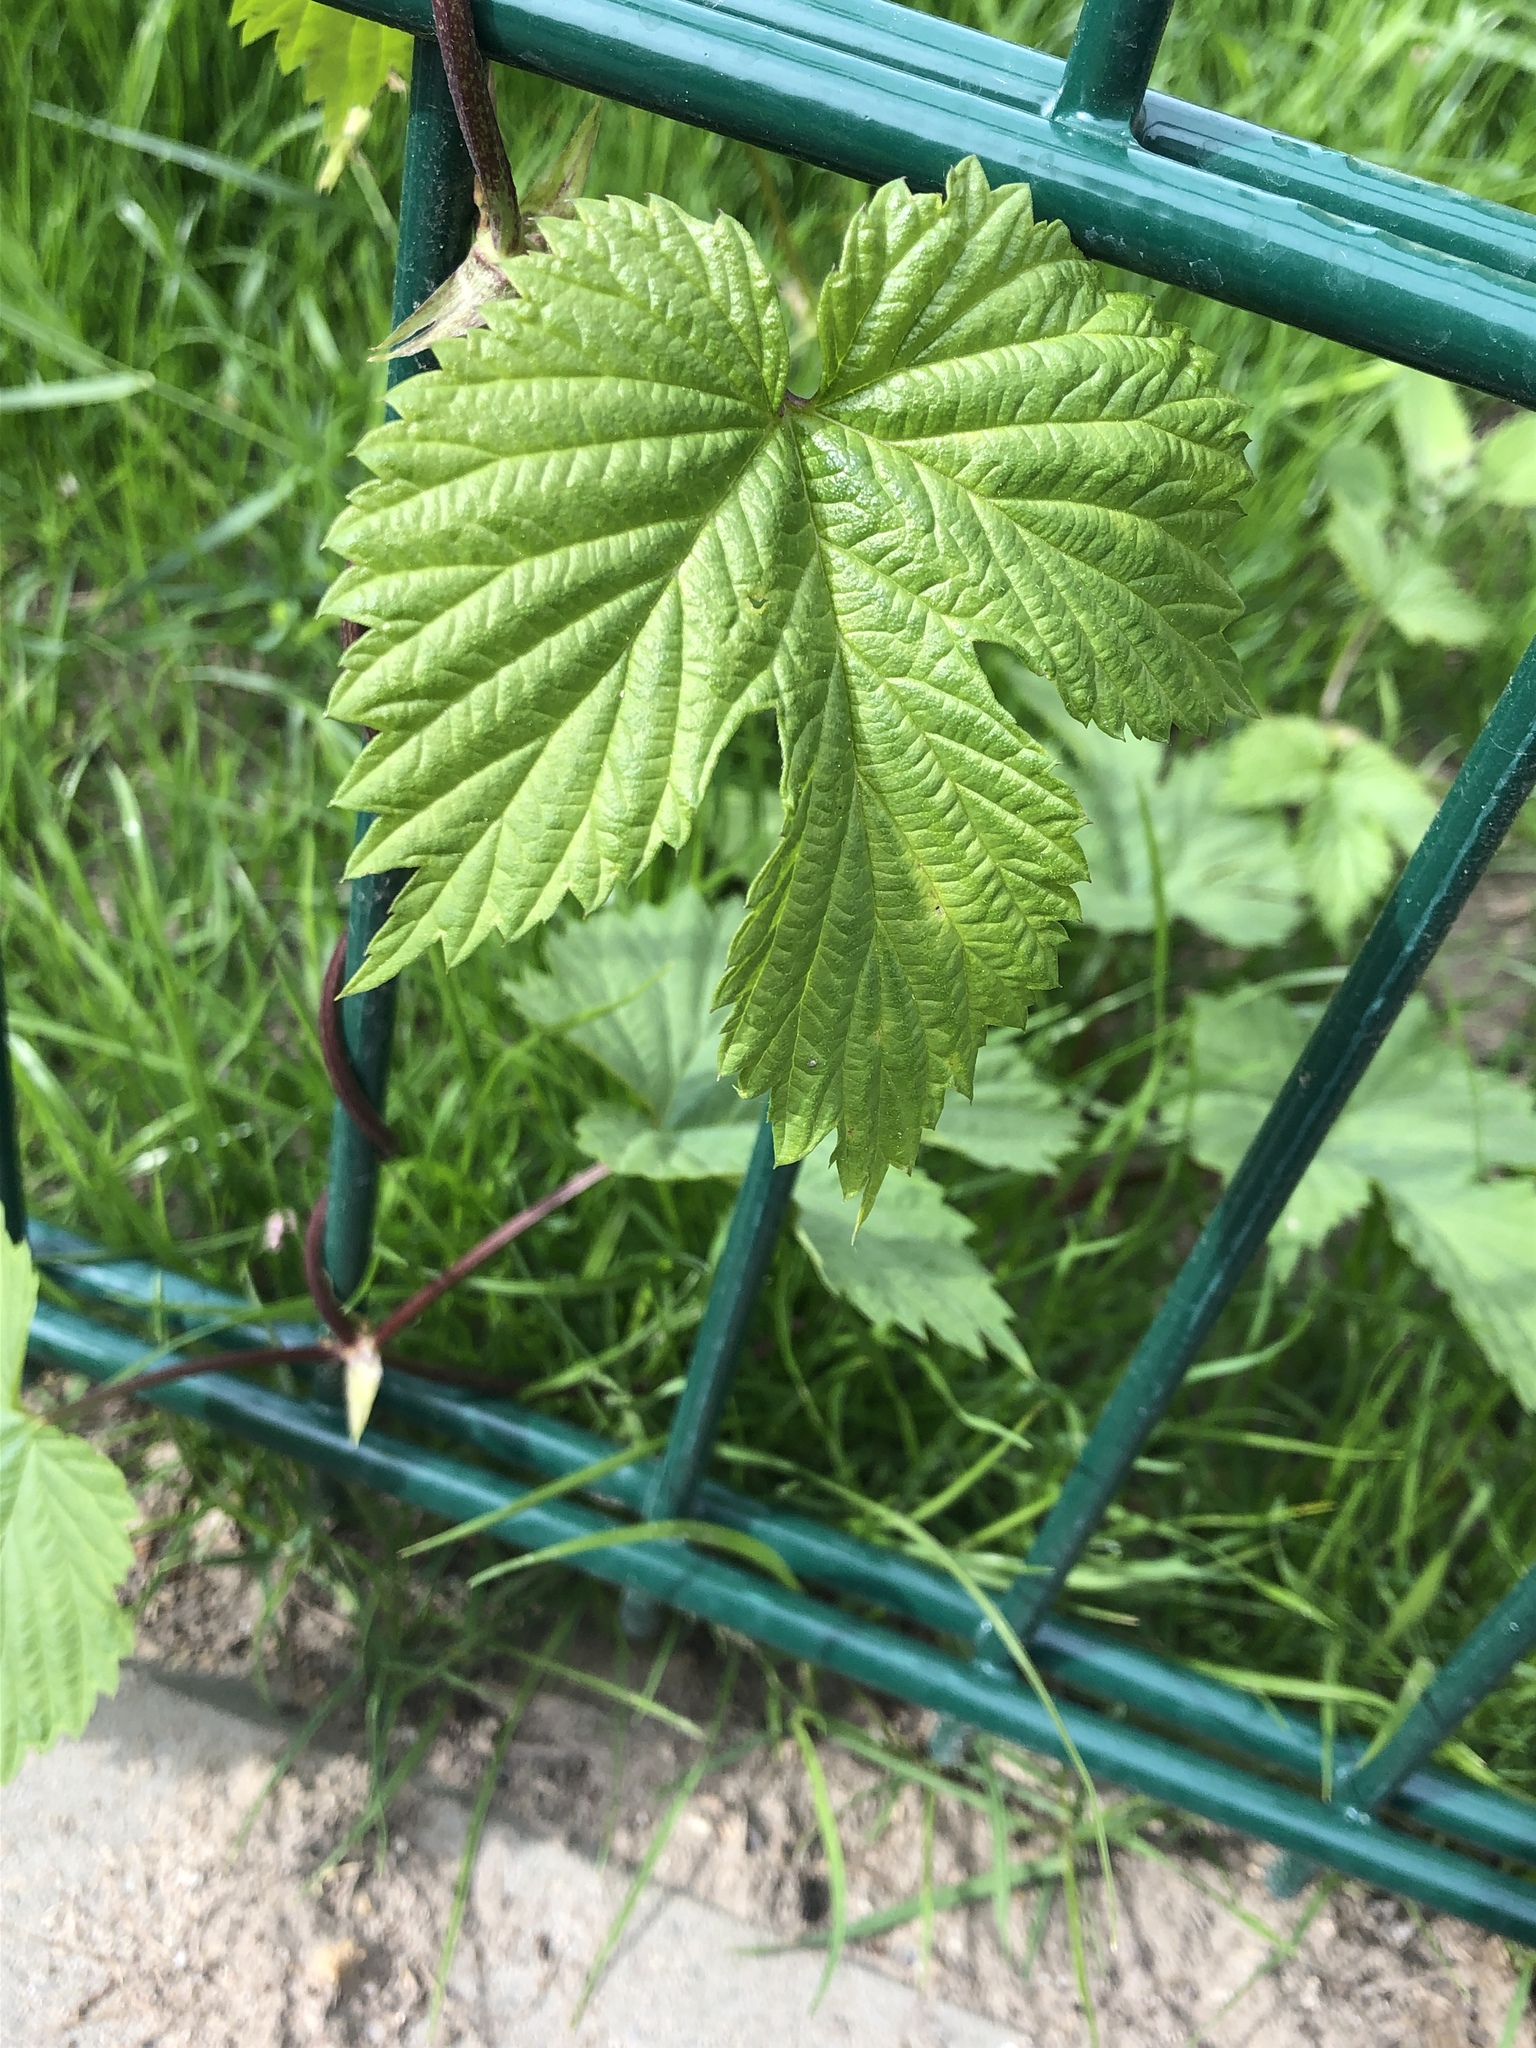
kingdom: Plantae
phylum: Tracheophyta
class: Magnoliopsida
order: Rosales
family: Cannabaceae
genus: Humulus
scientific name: Humulus lupulus
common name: Hop
